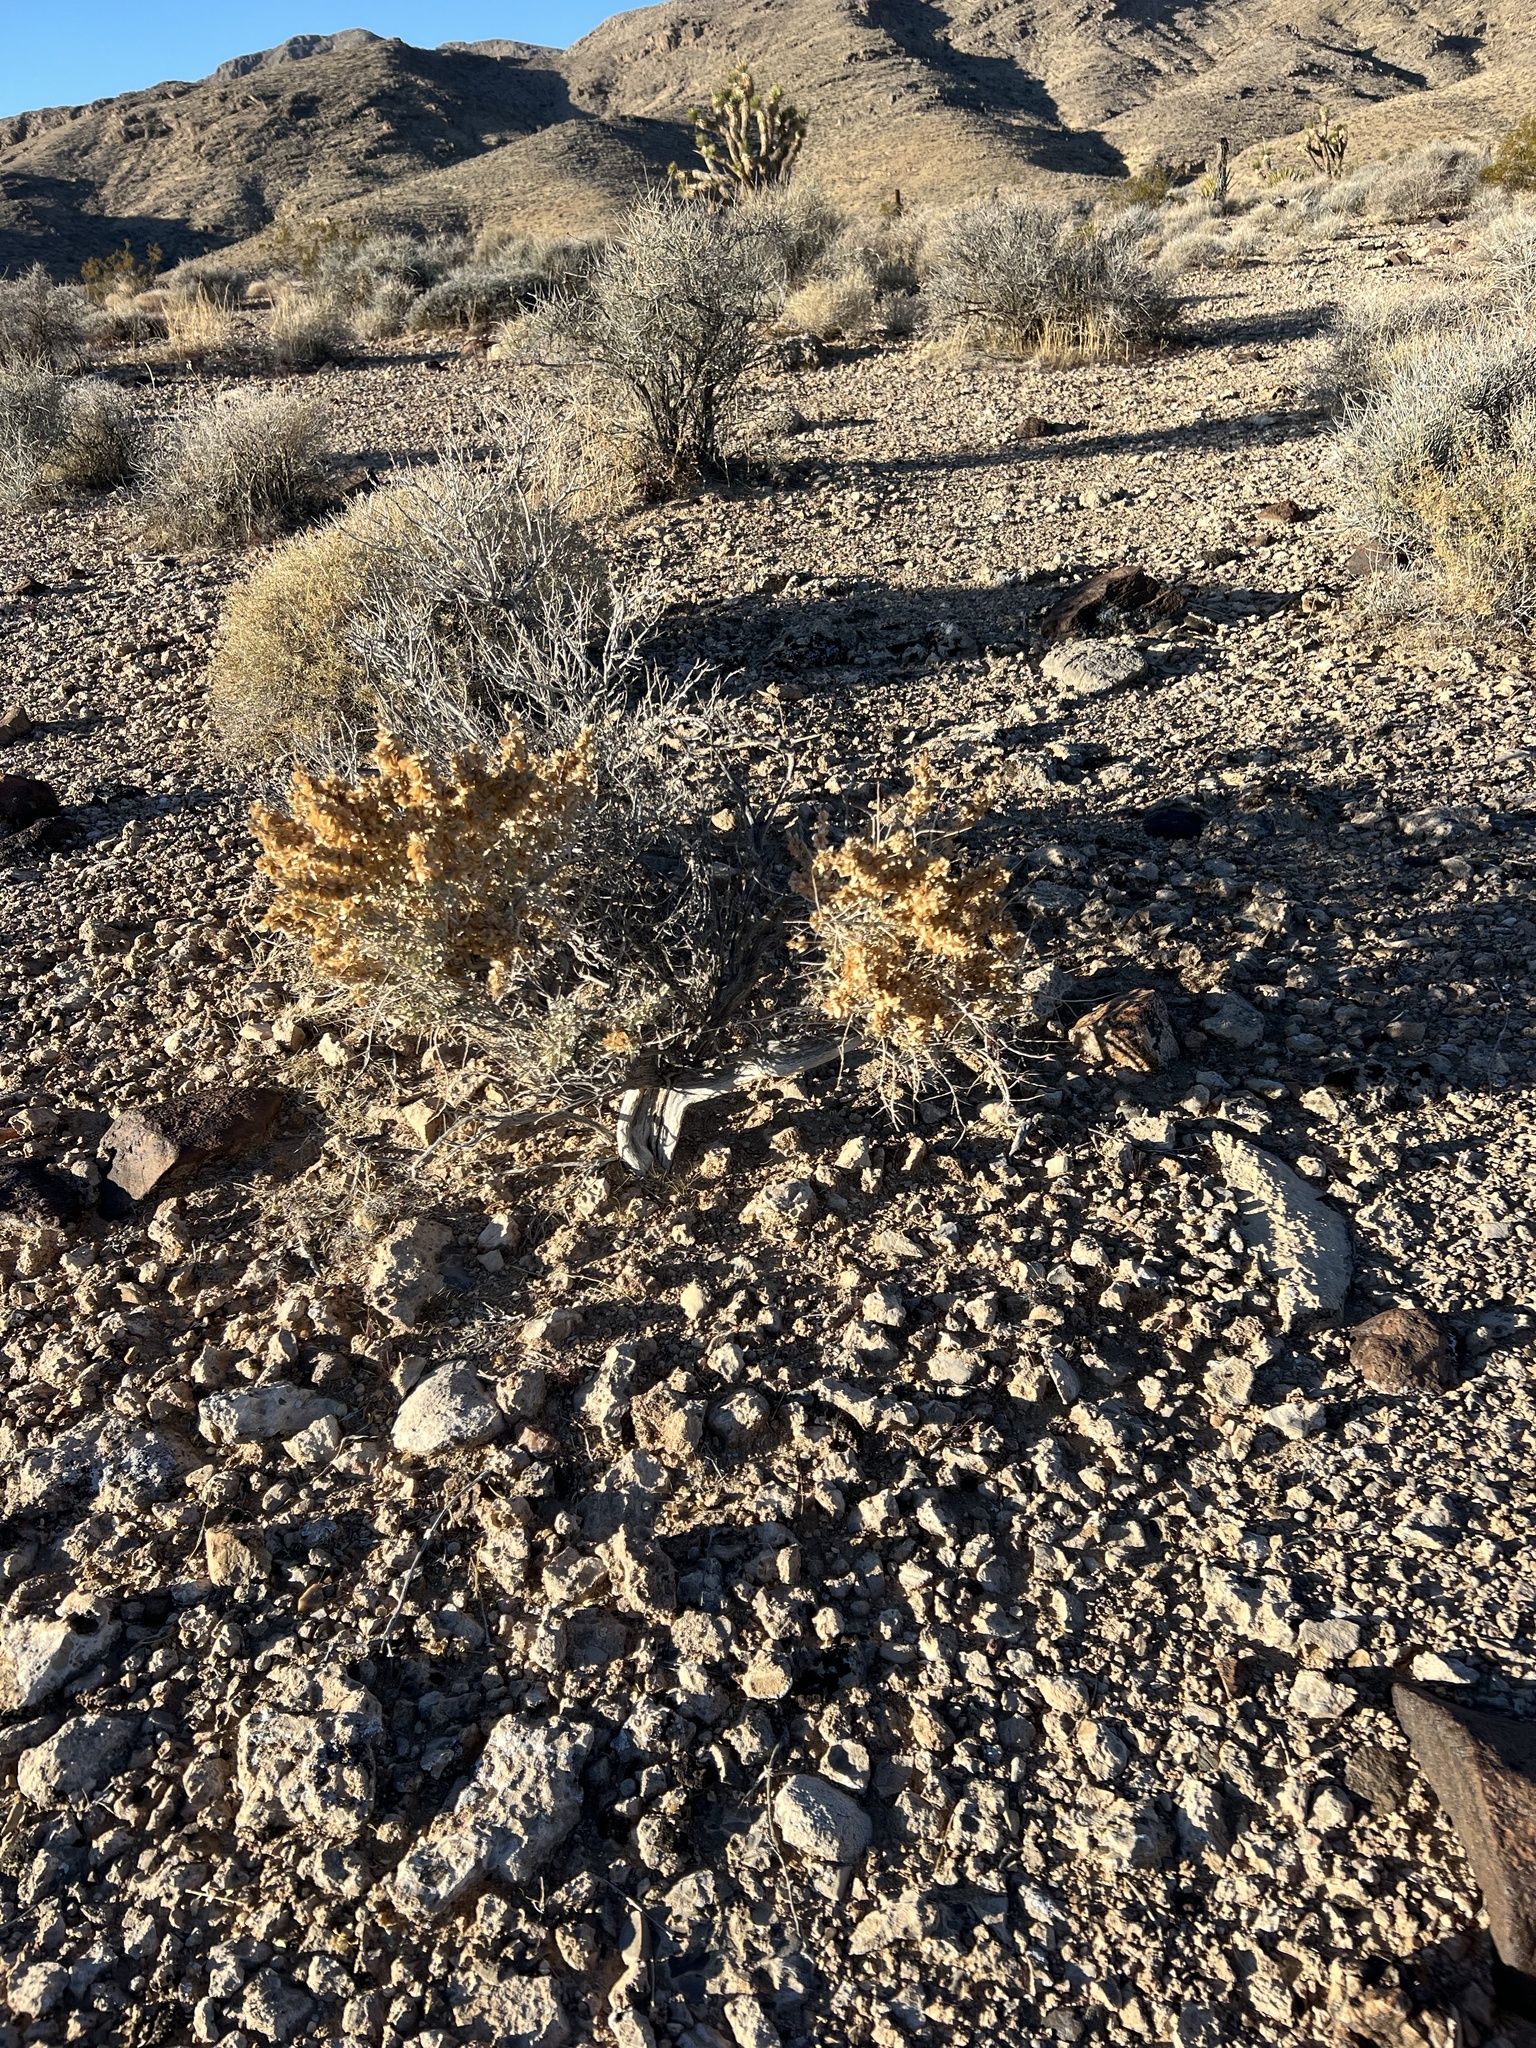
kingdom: Plantae
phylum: Tracheophyta
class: Magnoliopsida
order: Caryophyllales
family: Amaranthaceae
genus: Atriplex
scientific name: Atriplex confertifolia
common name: Shadscale
